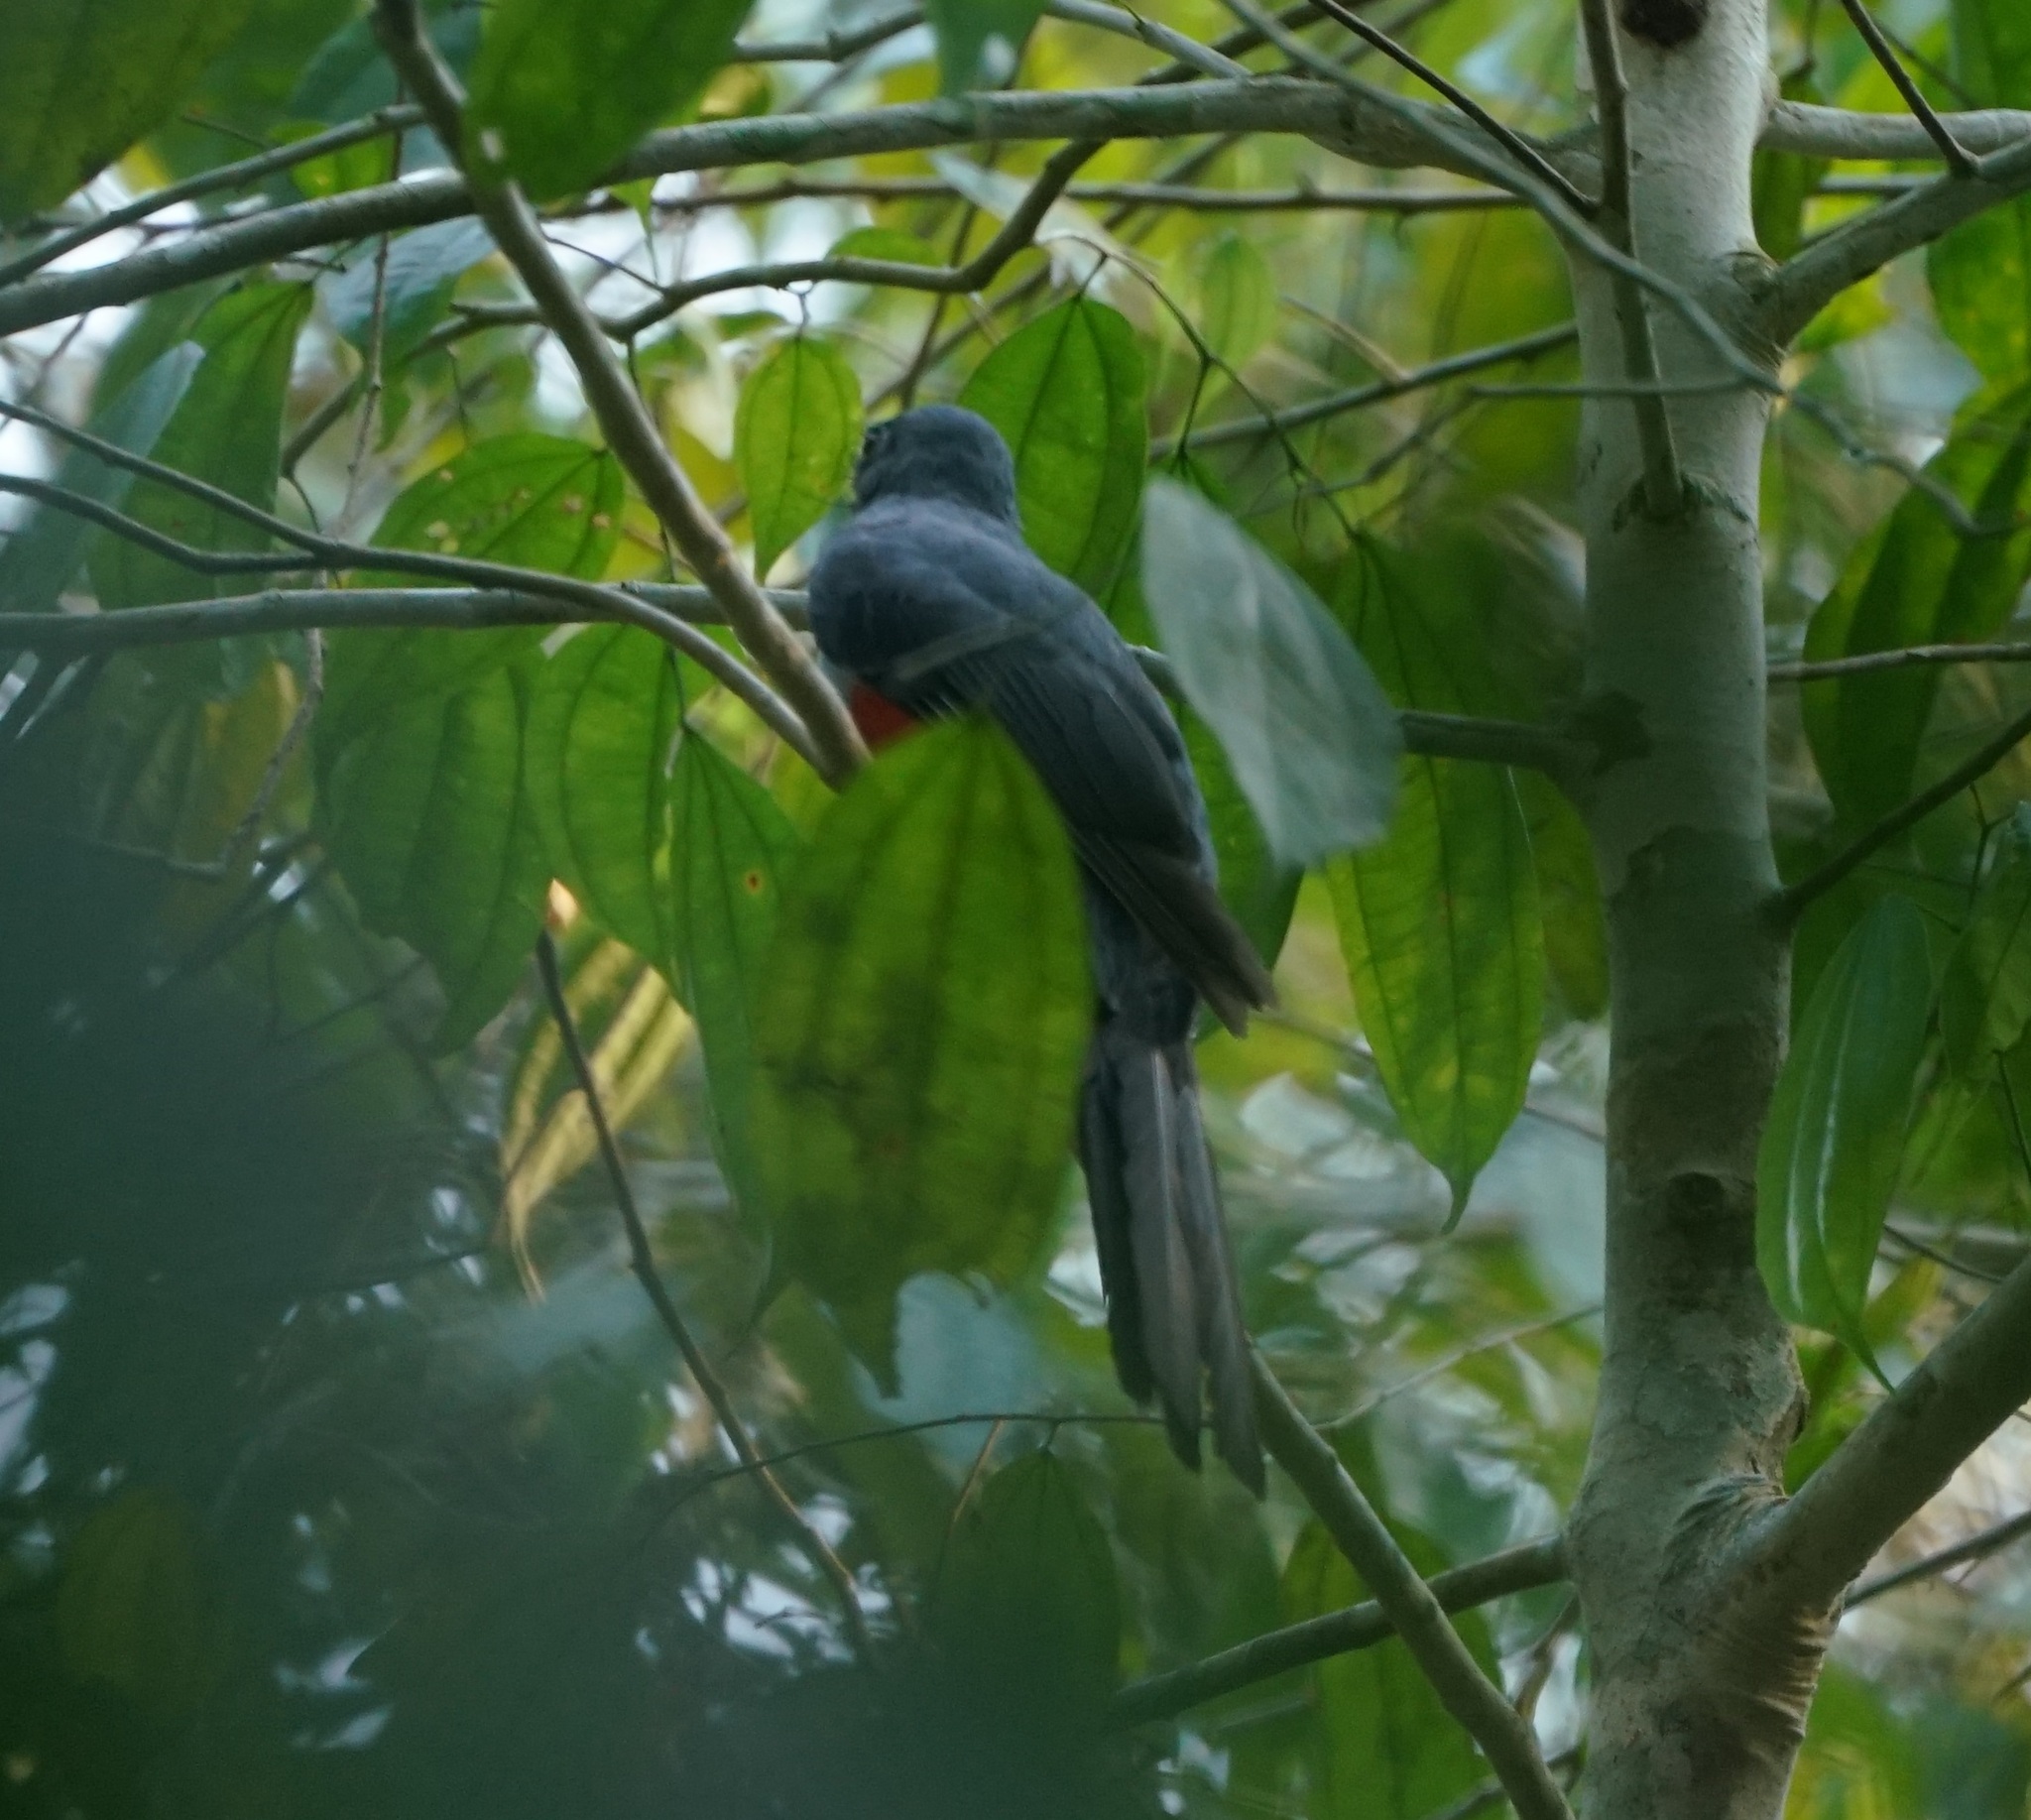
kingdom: Animalia
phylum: Chordata
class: Aves
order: Trogoniformes
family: Trogonidae
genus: Trogon
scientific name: Trogon melanurus
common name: Black-tailed trogon
